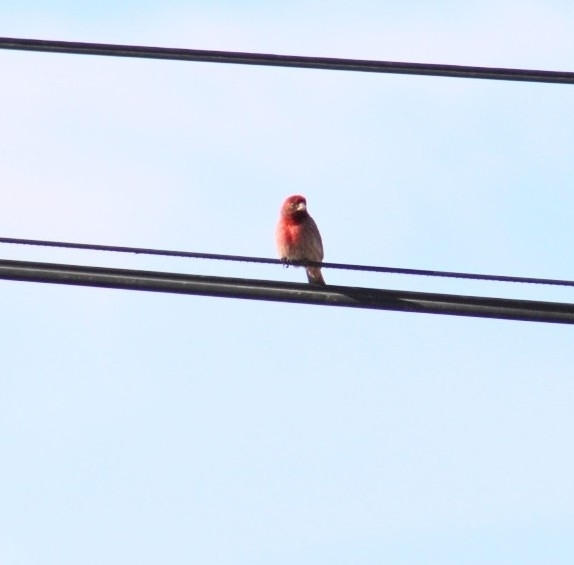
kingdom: Animalia
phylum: Chordata
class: Aves
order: Passeriformes
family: Fringillidae
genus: Haemorhous
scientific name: Haemorhous mexicanus
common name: House finch
